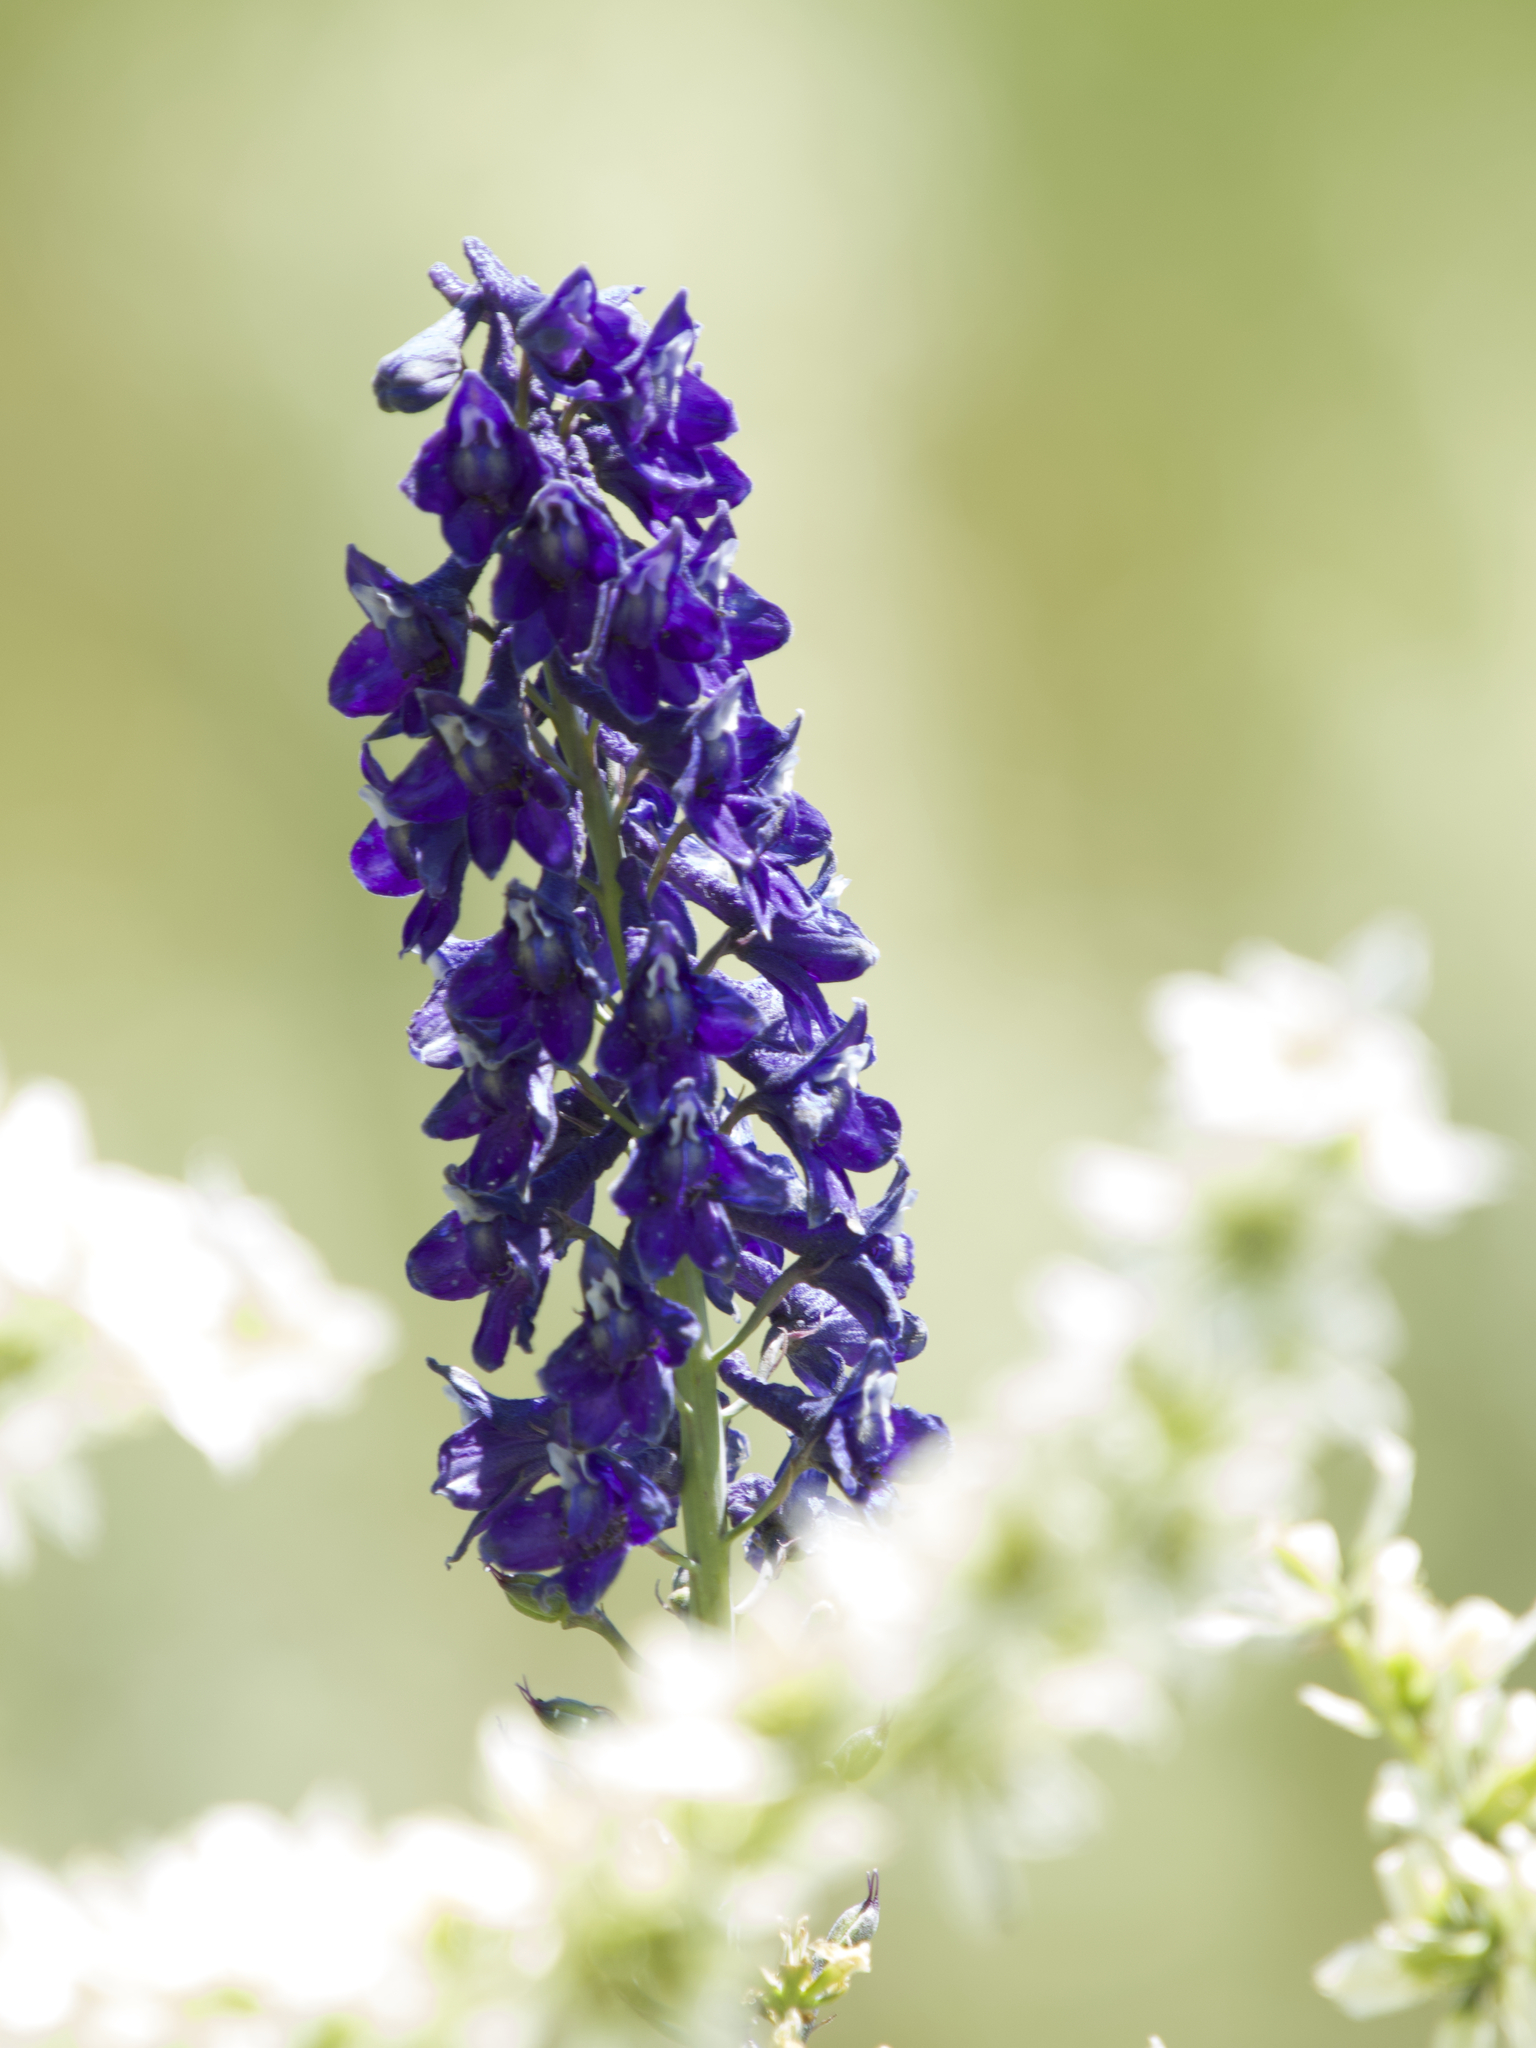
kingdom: Plantae
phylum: Tracheophyta
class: Magnoliopsida
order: Ranunculales
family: Ranunculaceae
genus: Delphinium
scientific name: Delphinium glaucum
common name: Brown's larkspur
